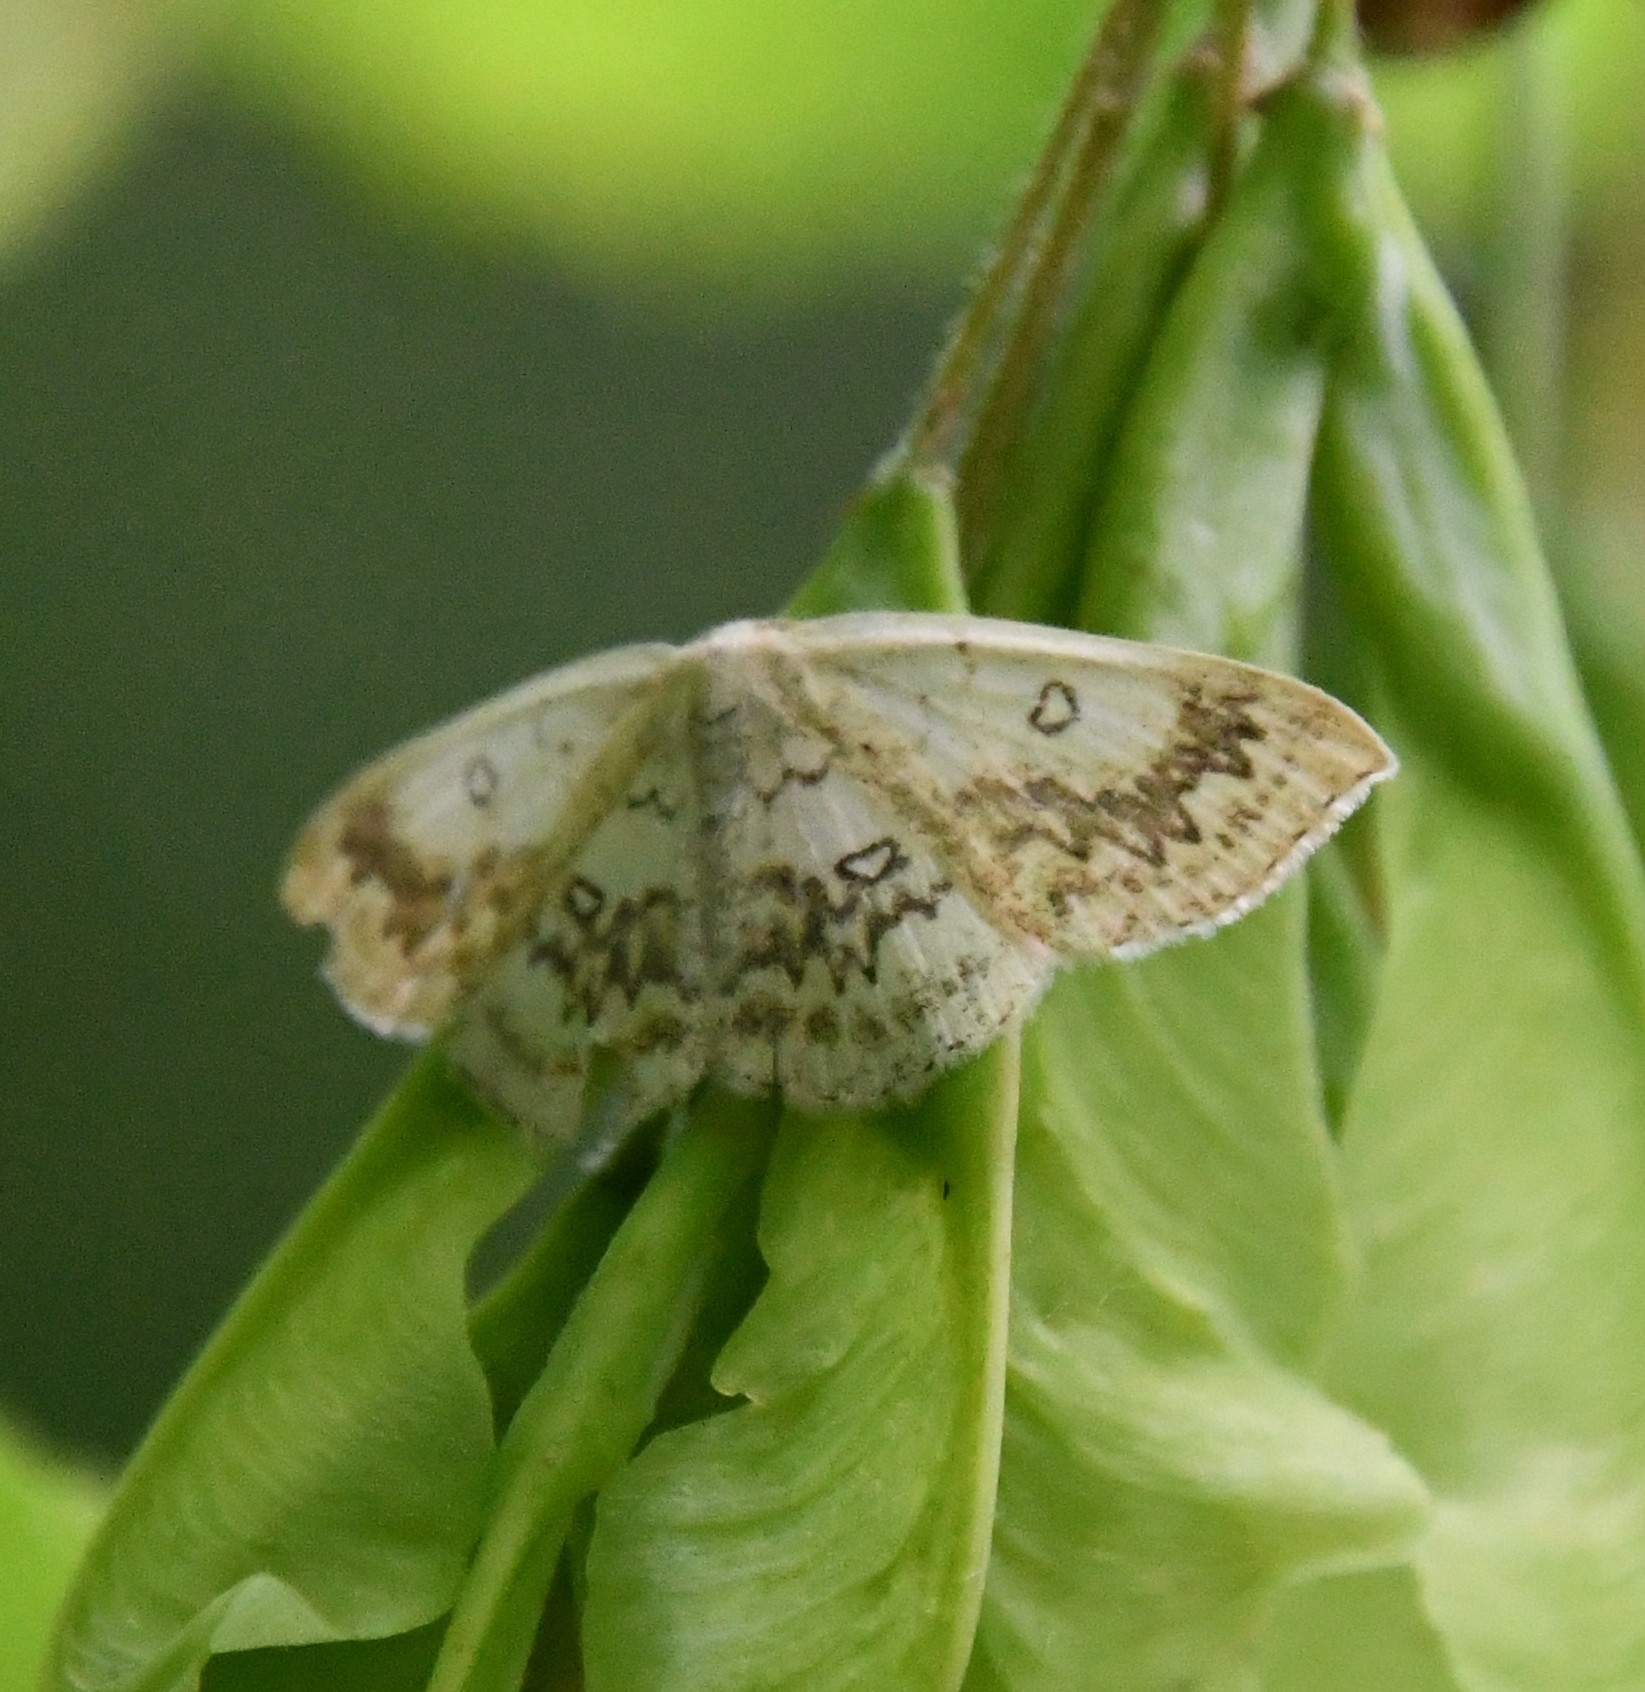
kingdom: Animalia
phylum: Arthropoda
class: Insecta
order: Lepidoptera
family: Geometridae
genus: Cyclophora
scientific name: Cyclophora annularia
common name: Mocha
